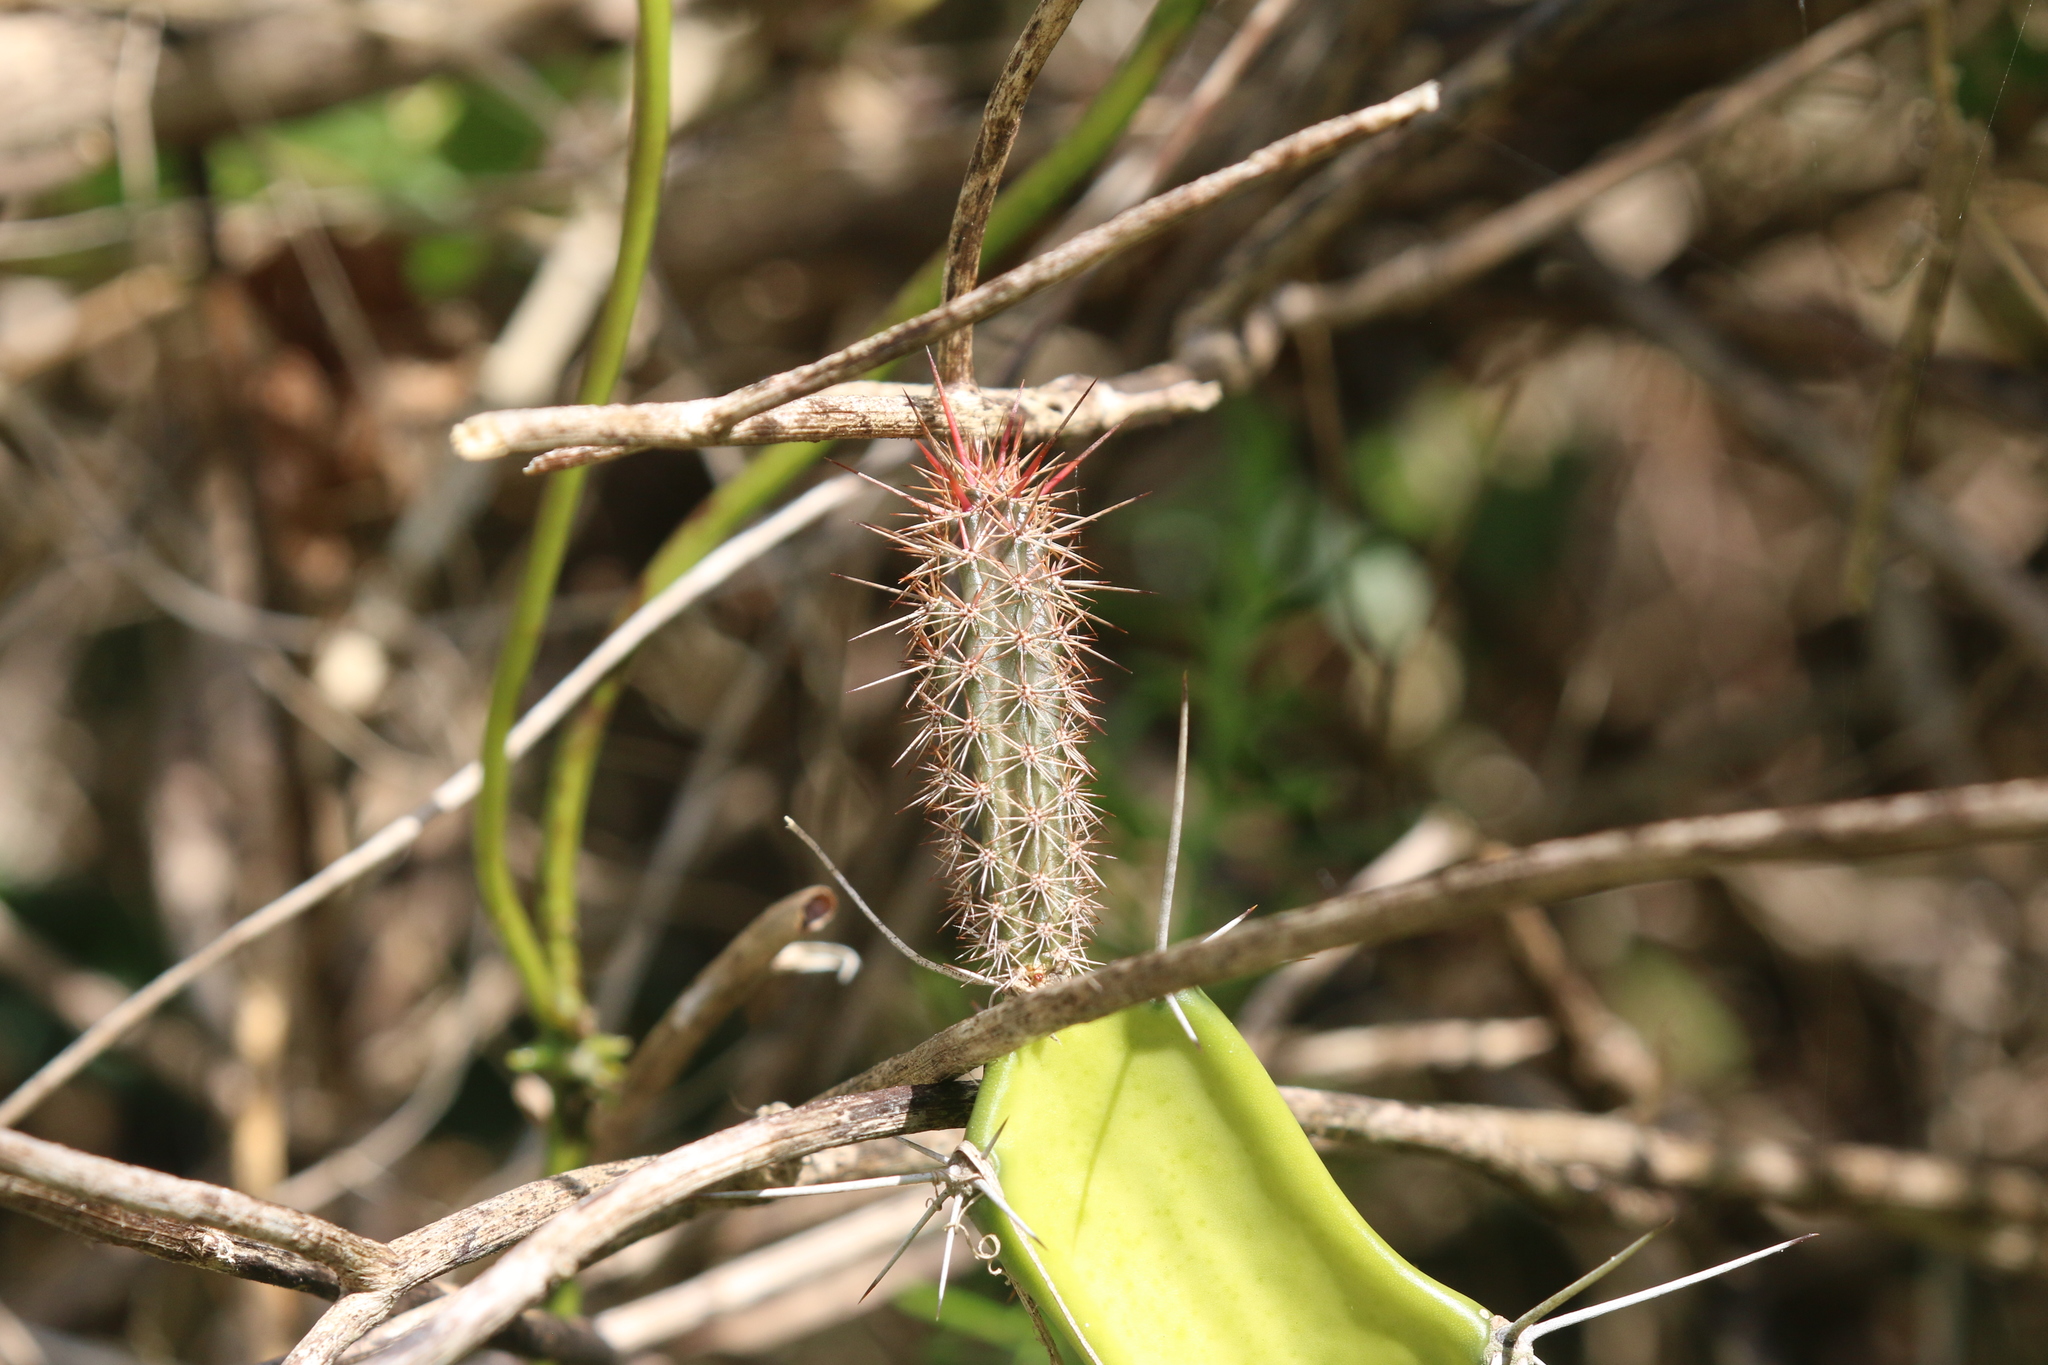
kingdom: Plantae
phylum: Tracheophyta
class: Magnoliopsida
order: Caryophyllales
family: Cactaceae
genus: Acanthocereus
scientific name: Acanthocereus tetragonus
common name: Triangle cactus
